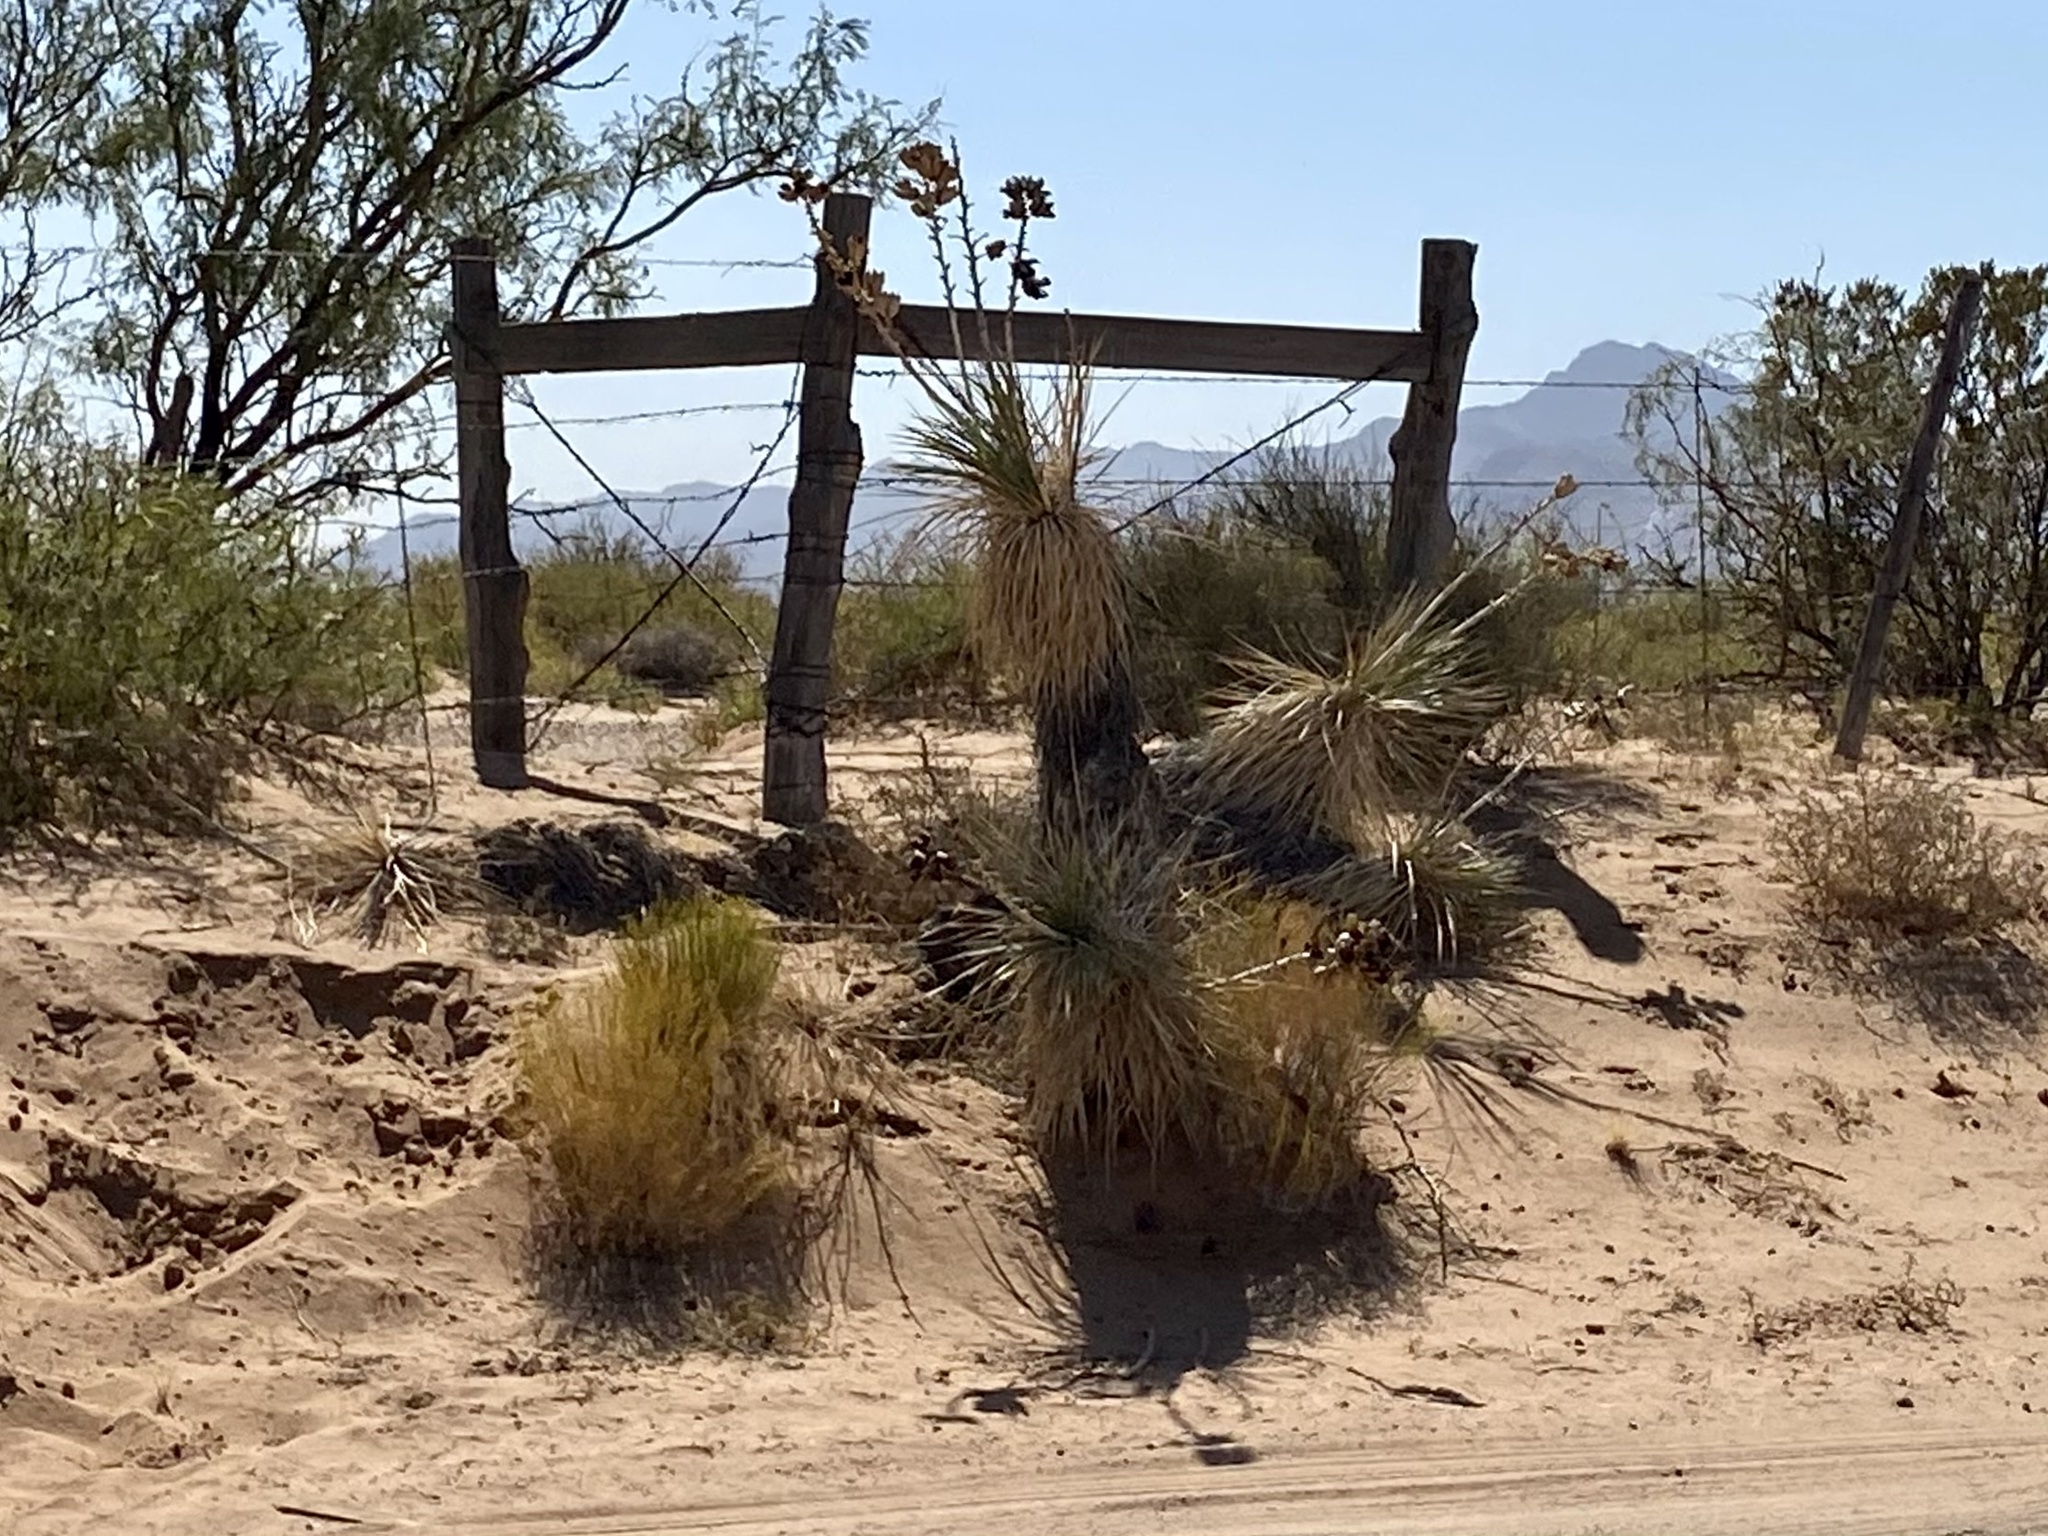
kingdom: Plantae
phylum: Tracheophyta
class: Liliopsida
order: Asparagales
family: Asparagaceae
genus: Yucca
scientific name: Yucca elata
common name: Palmella
